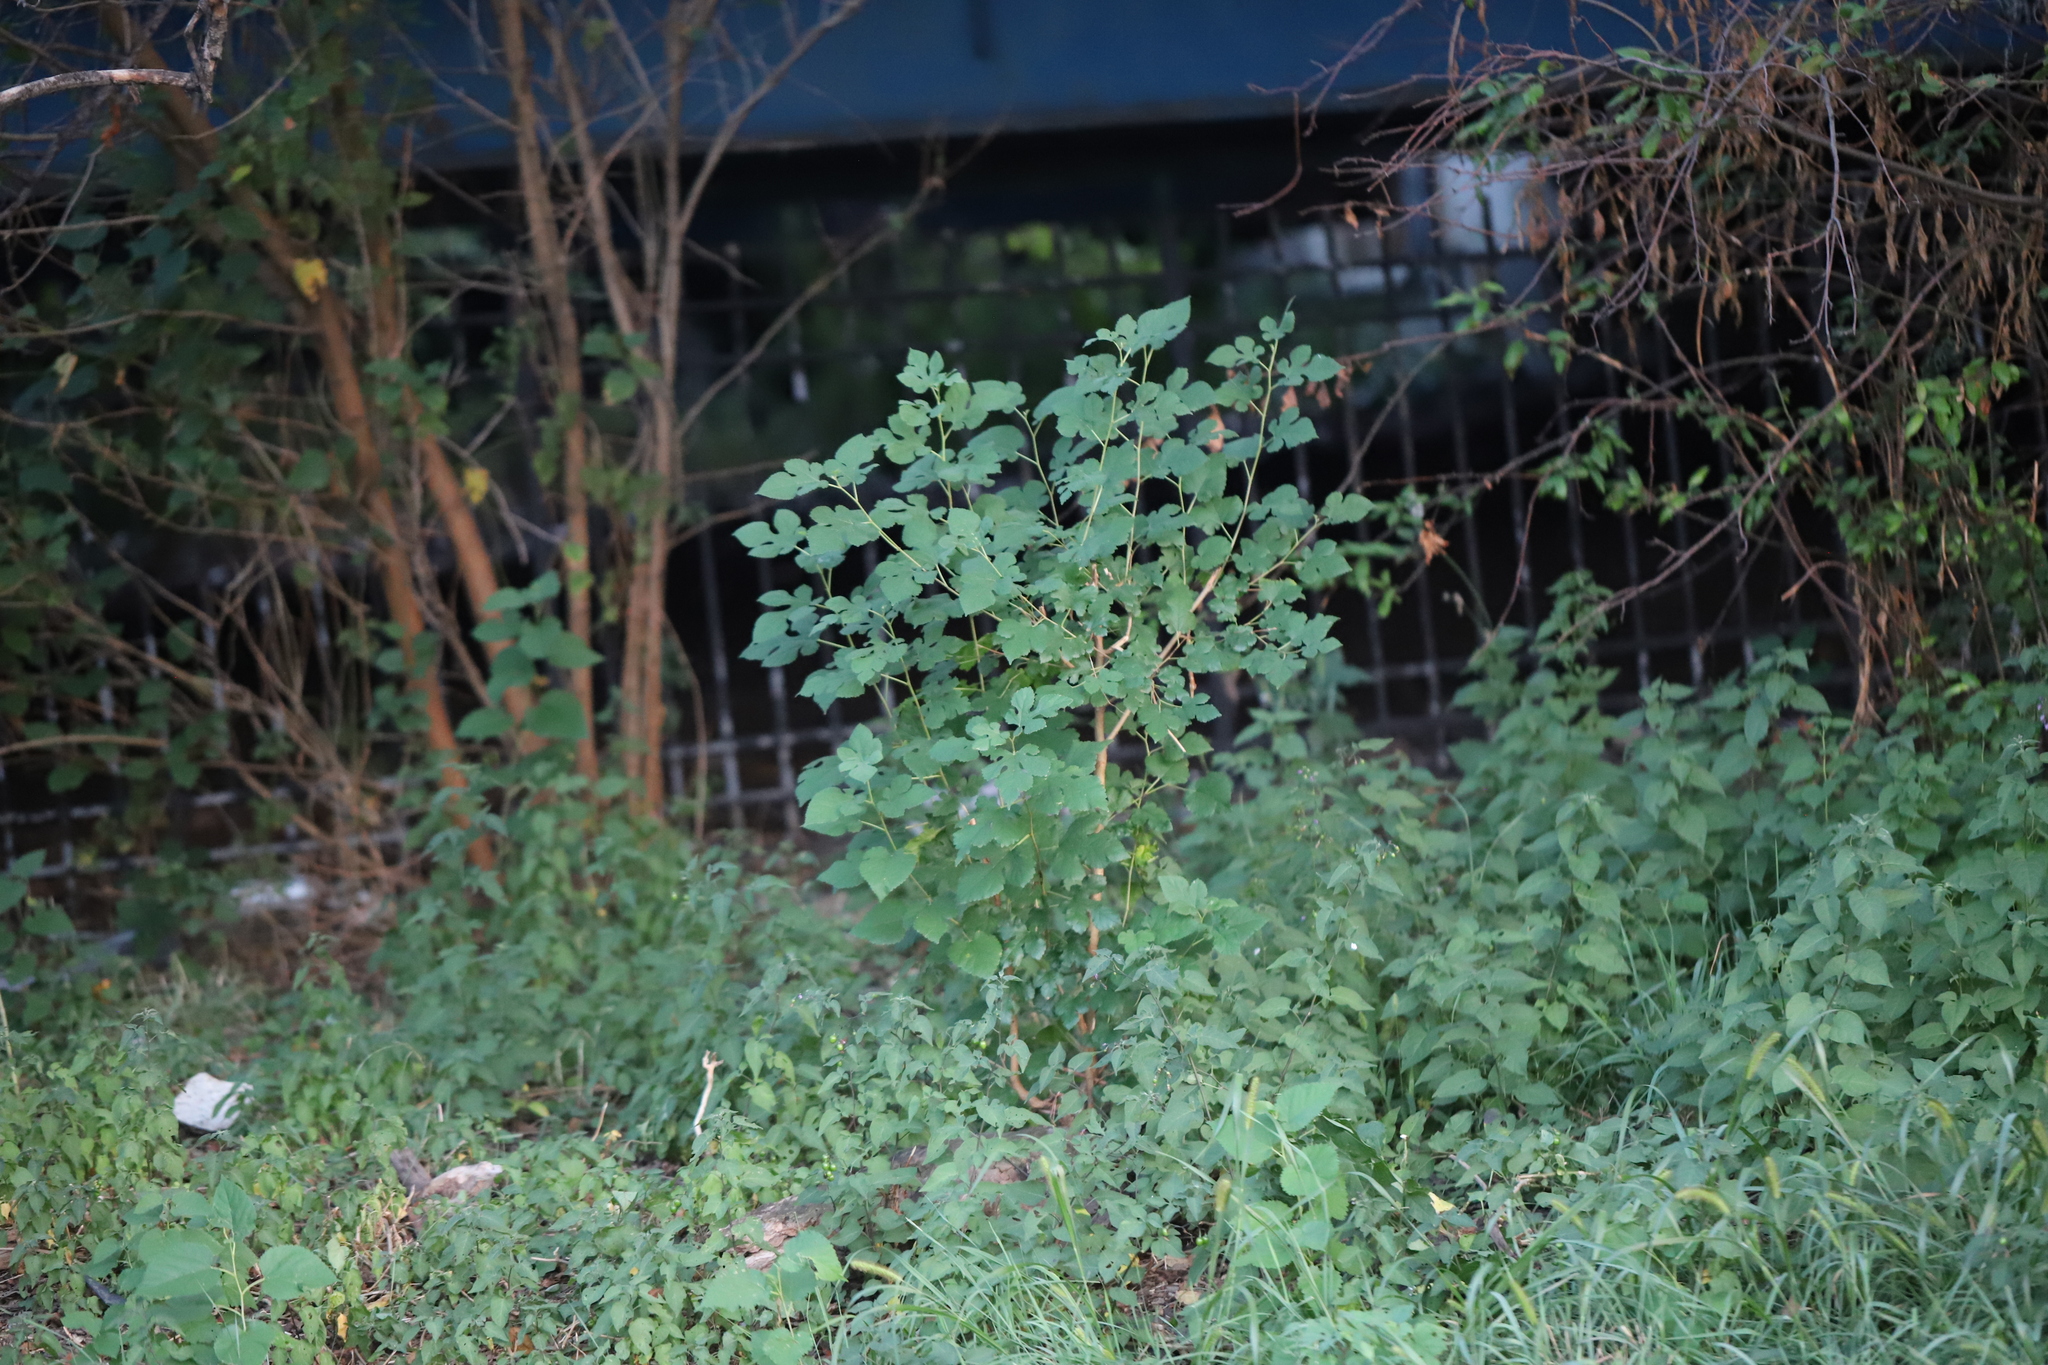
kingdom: Plantae
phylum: Tracheophyta
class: Magnoliopsida
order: Rosales
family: Moraceae
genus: Morus
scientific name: Morus alba
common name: White mulberry
